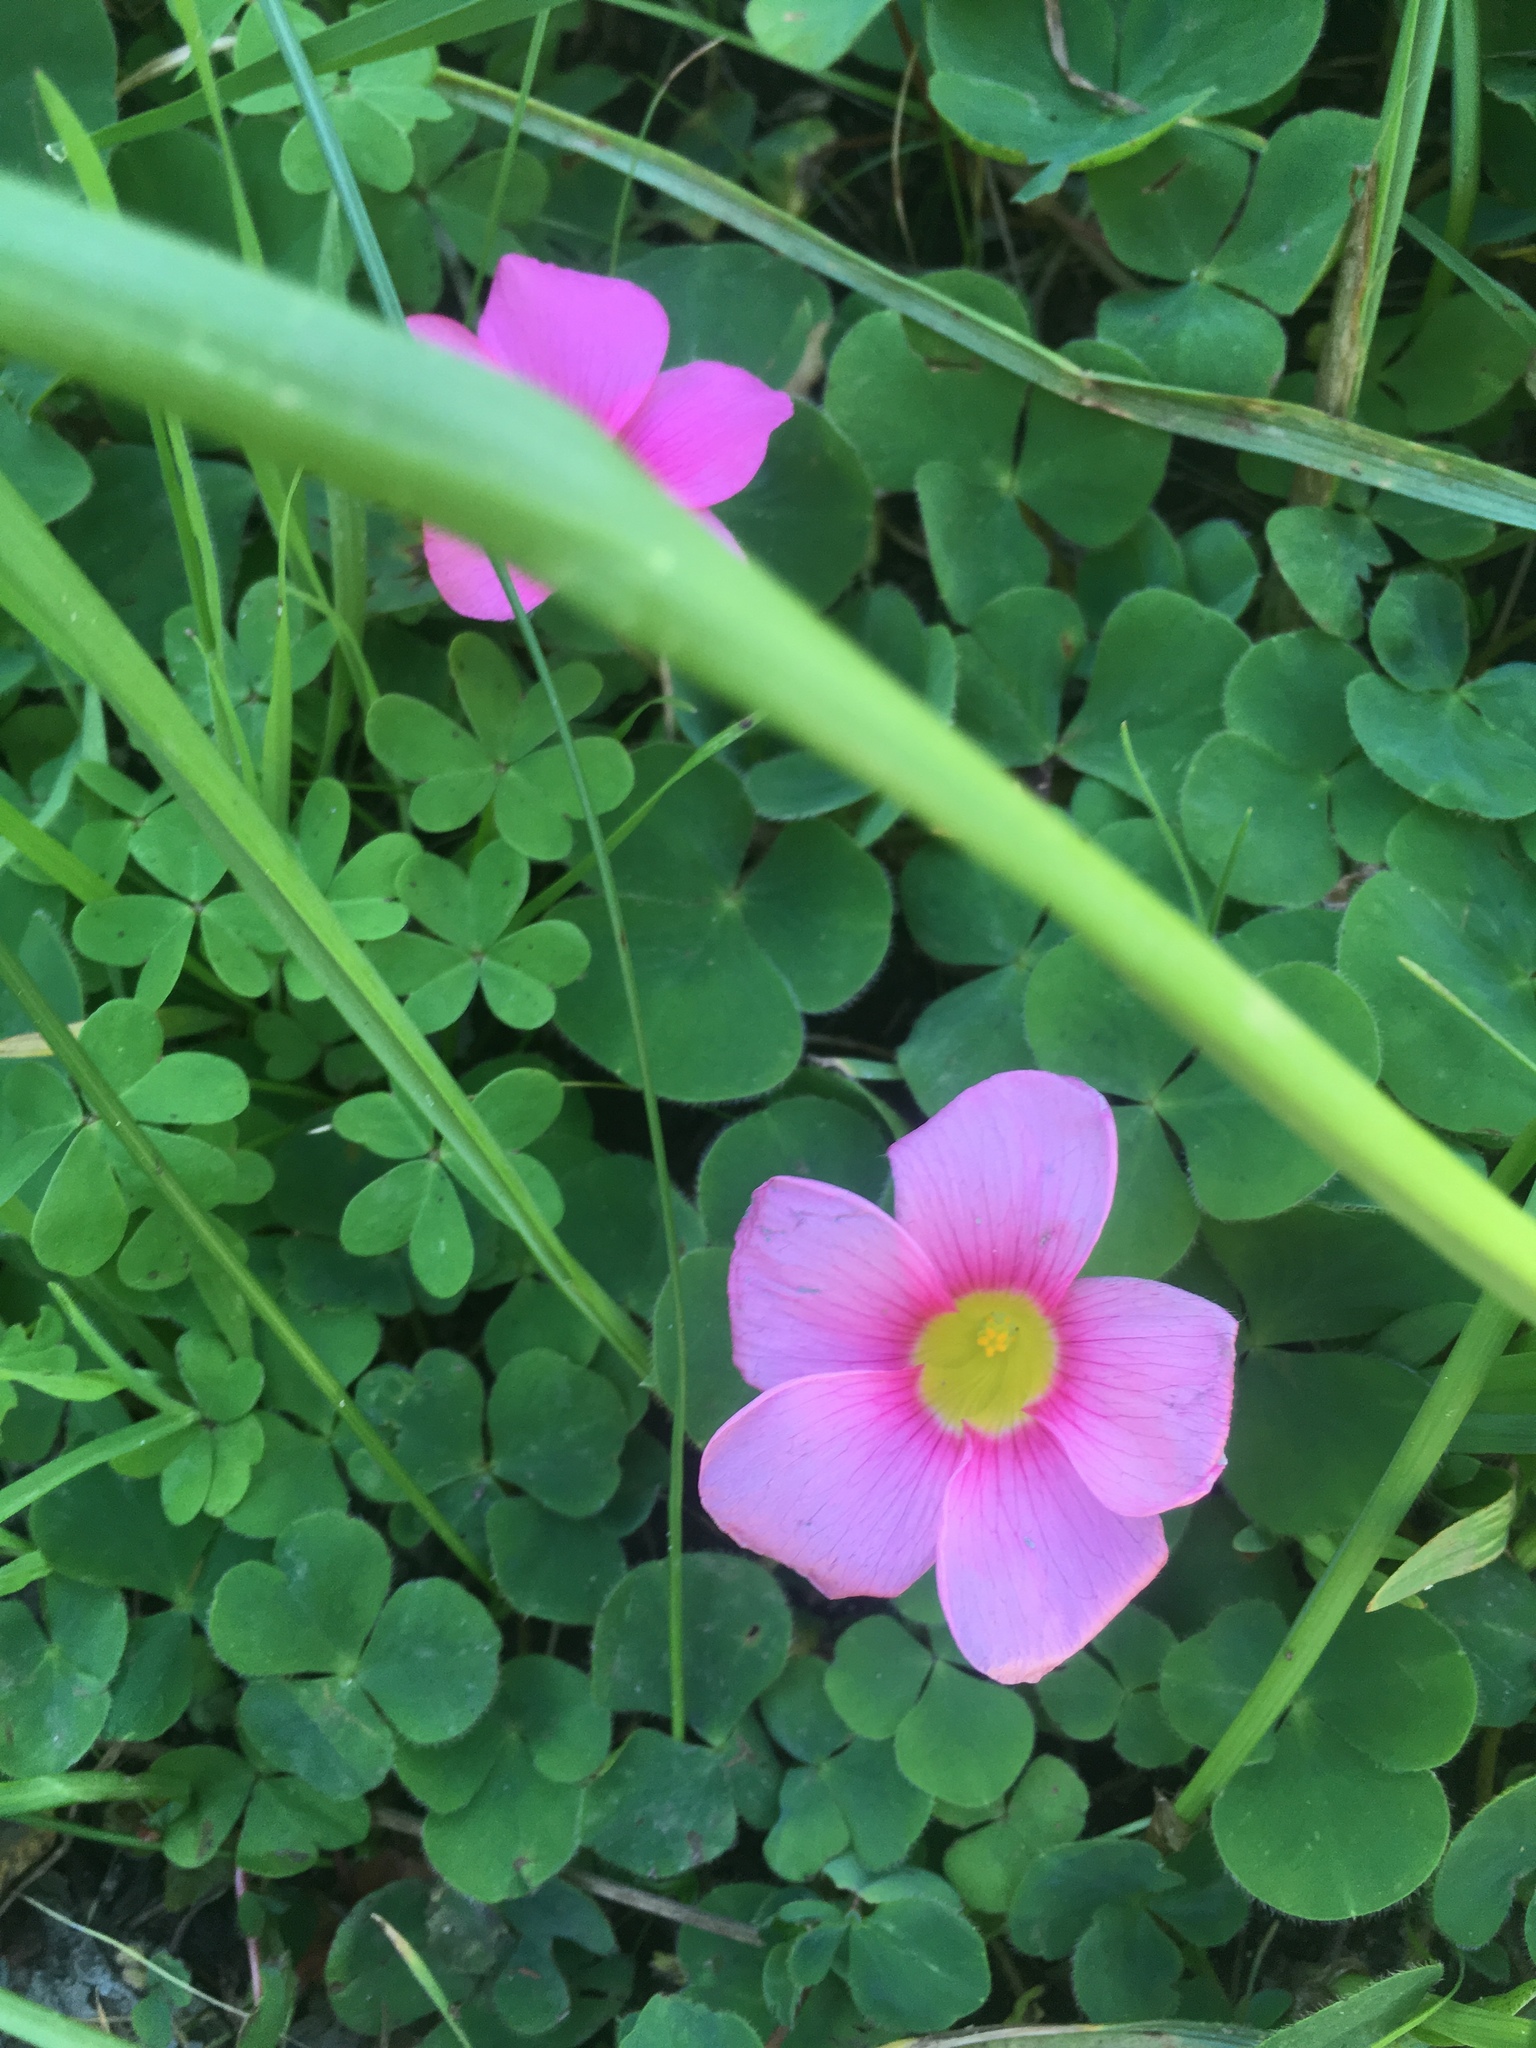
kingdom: Plantae
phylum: Tracheophyta
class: Magnoliopsida
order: Oxalidales
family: Oxalidaceae
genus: Oxalis
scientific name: Oxalis purpurea
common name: Purple woodsorrel
